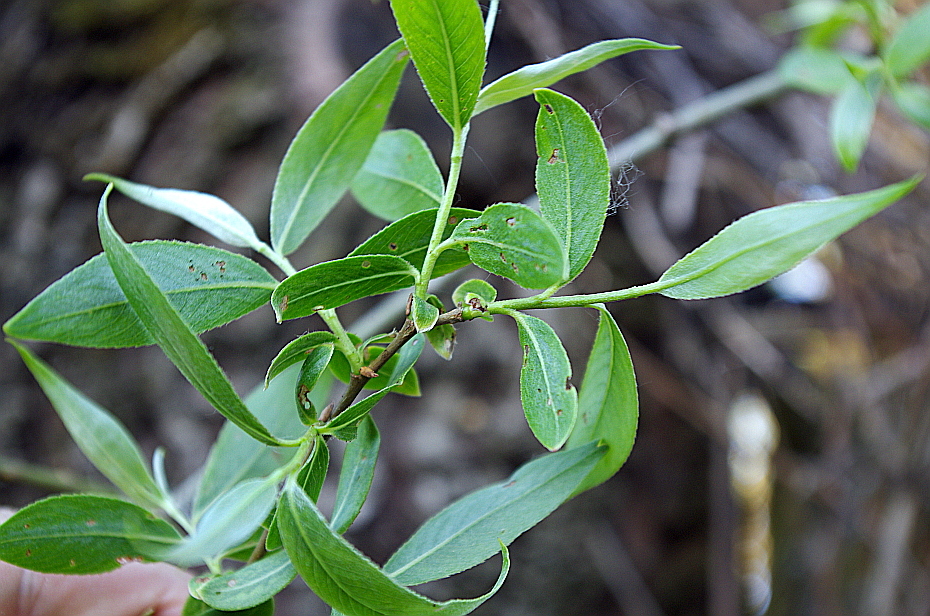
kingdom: Plantae
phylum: Tracheophyta
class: Magnoliopsida
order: Malpighiales
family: Salicaceae
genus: Salix
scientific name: Salix alba
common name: White willow
